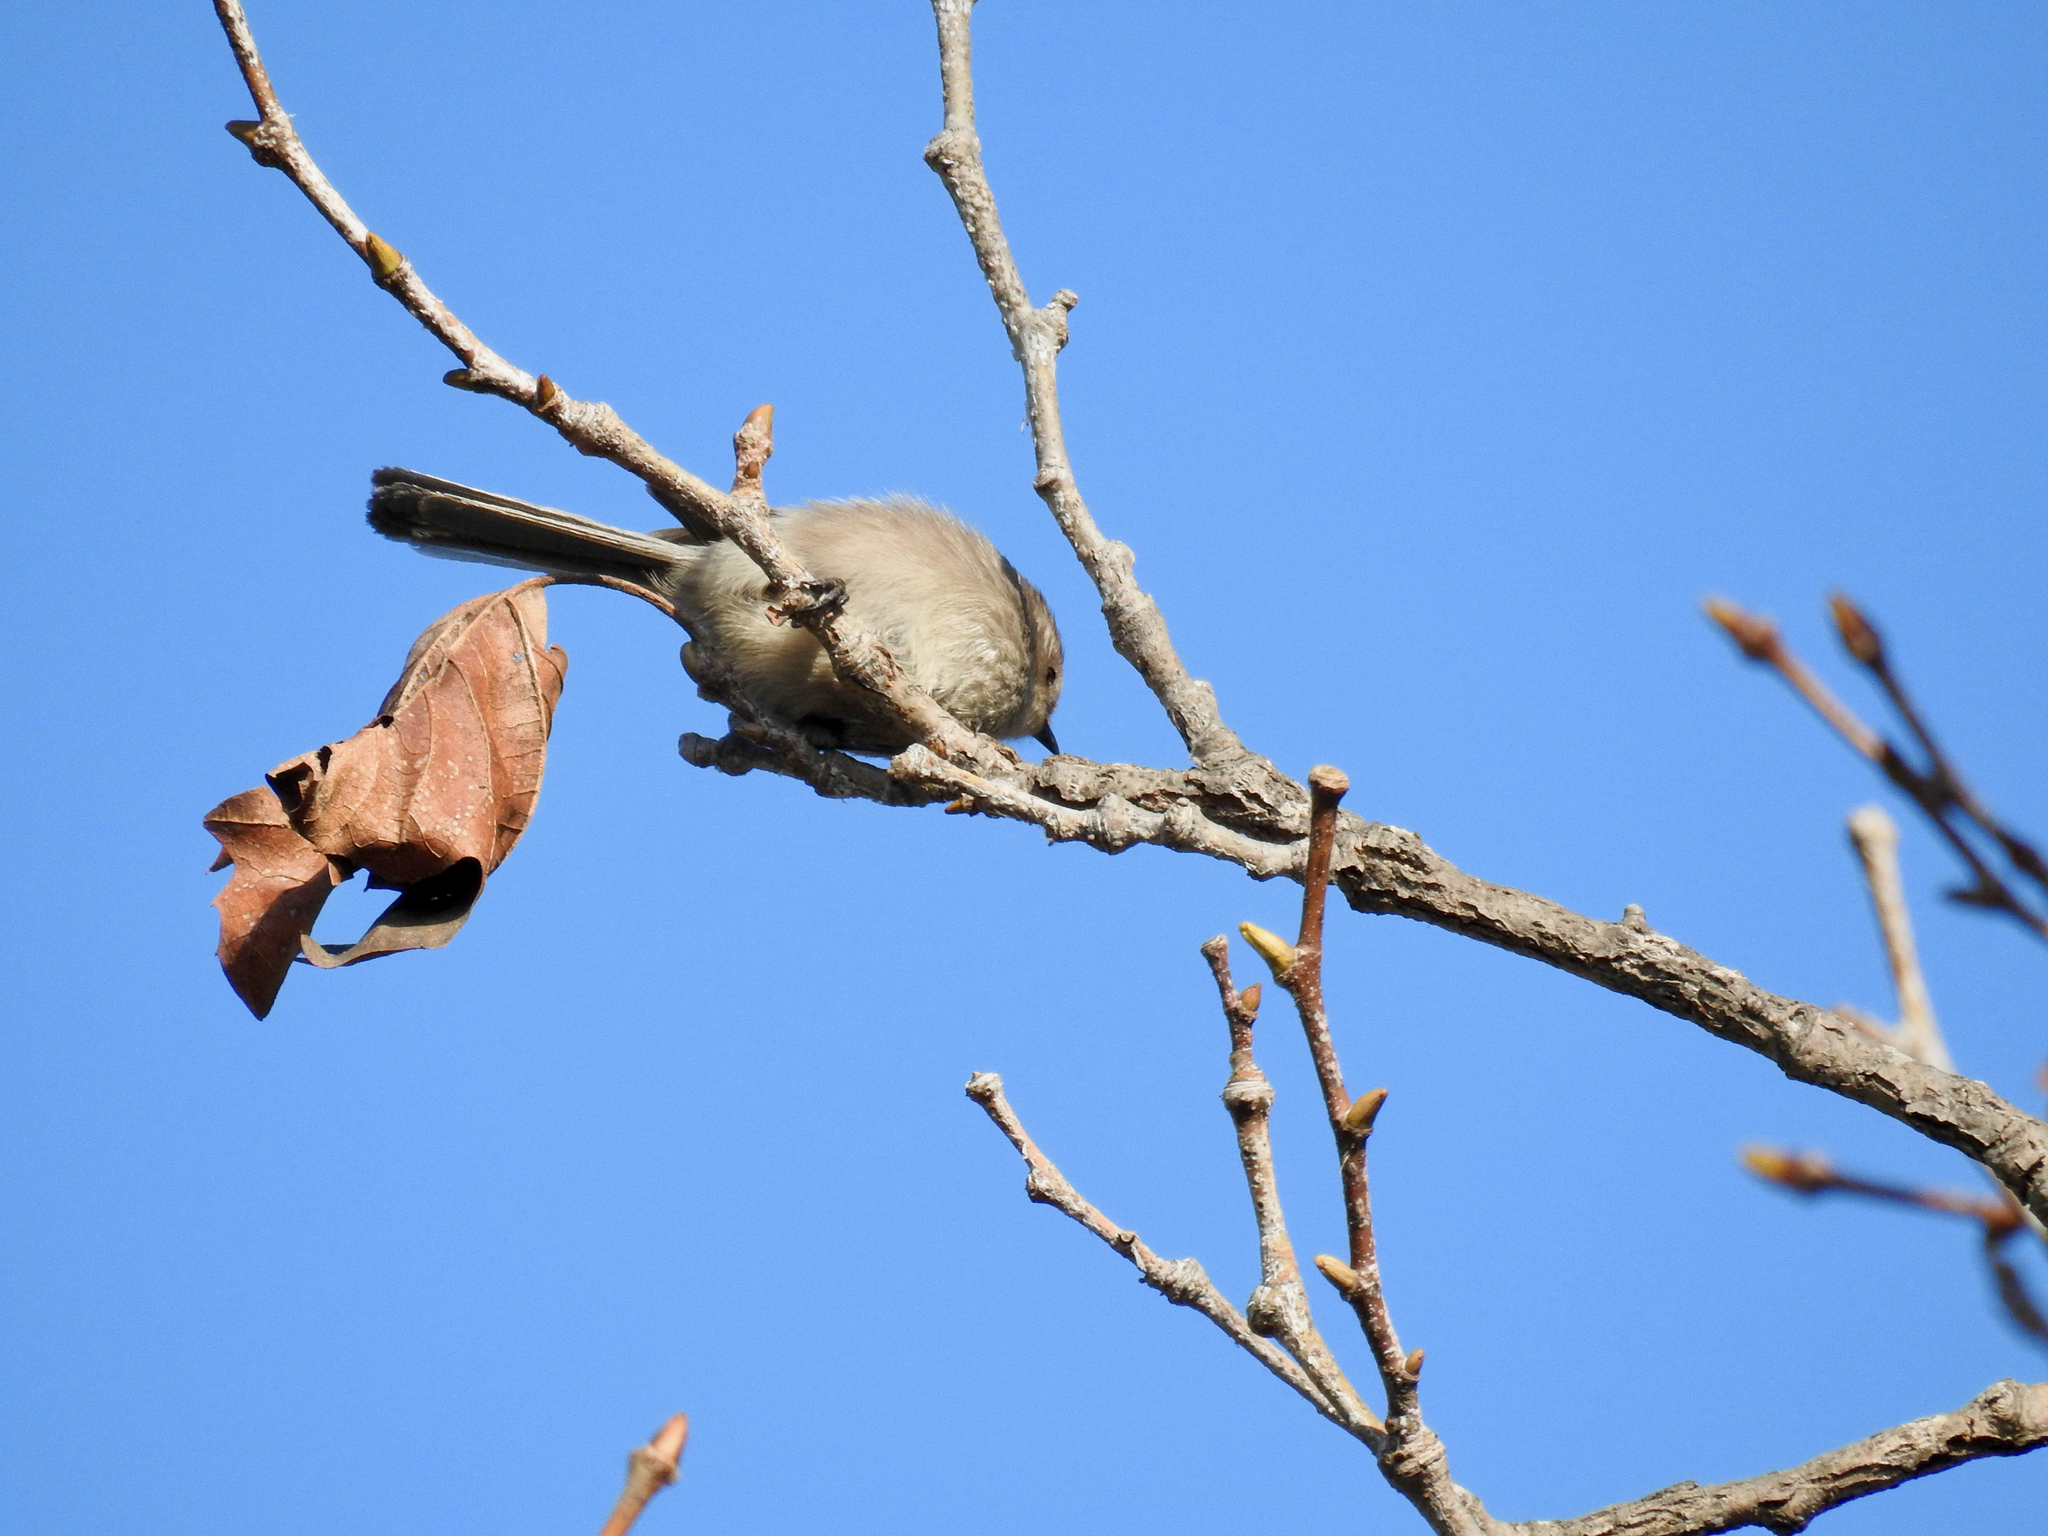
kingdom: Animalia
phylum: Chordata
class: Aves
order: Passeriformes
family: Aegithalidae
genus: Psaltriparus
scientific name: Psaltriparus minimus
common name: American bushtit
